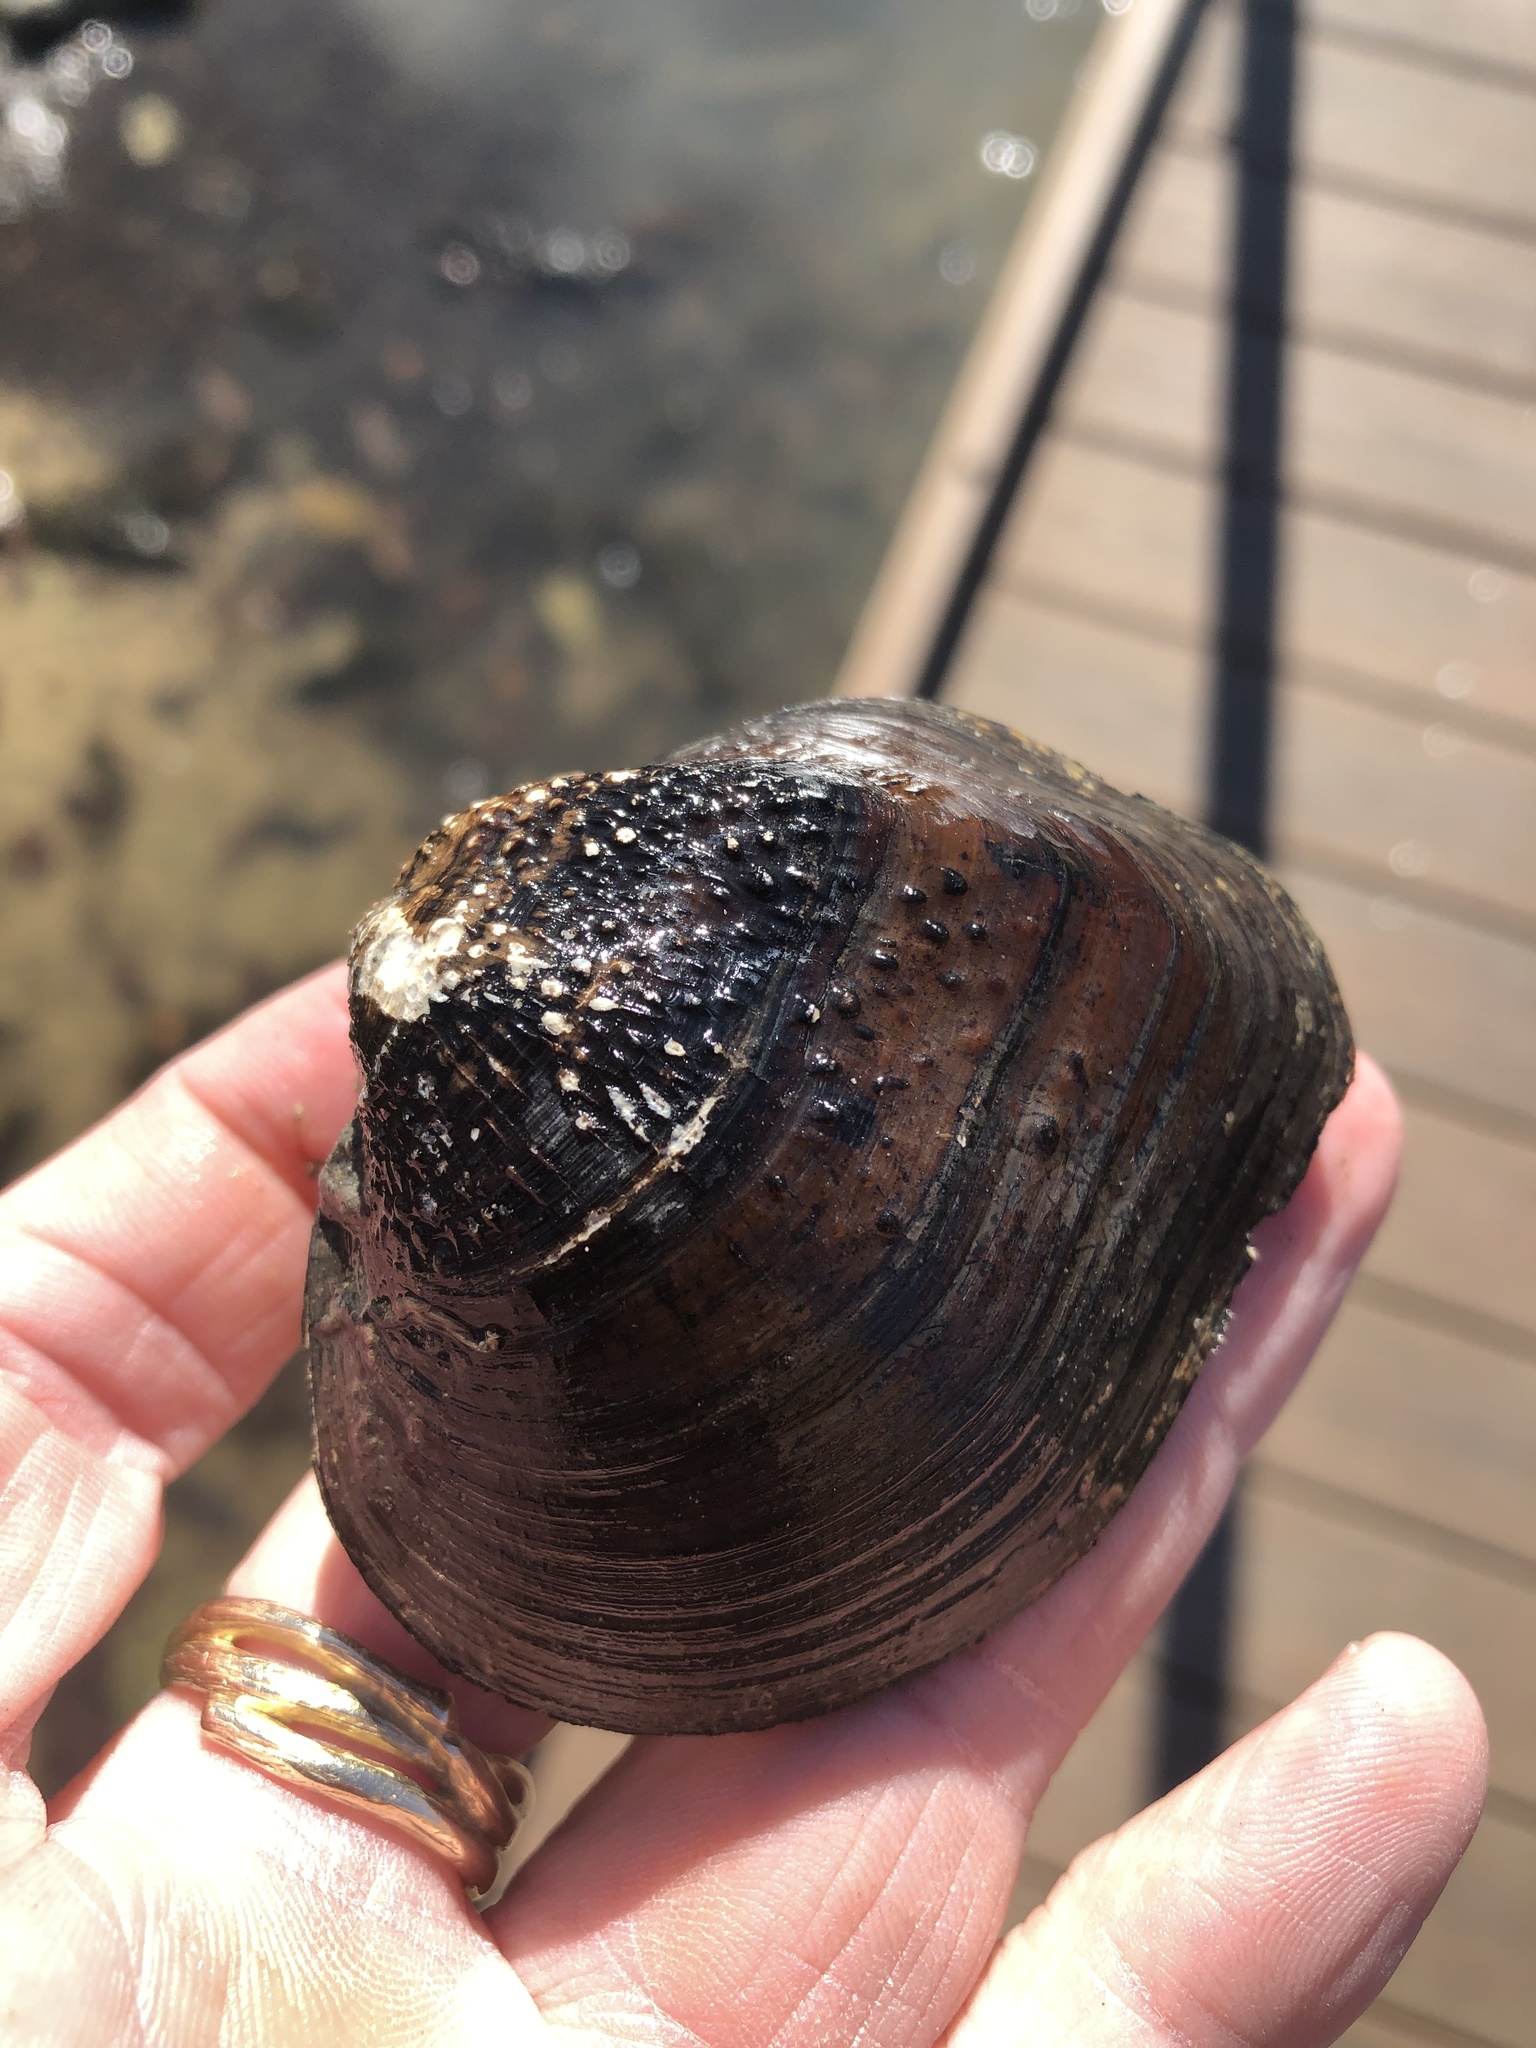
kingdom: Animalia
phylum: Mollusca
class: Bivalvia
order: Unionida
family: Unionidae
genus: Quadrula
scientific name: Quadrula quadrula
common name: Mapleleaf
